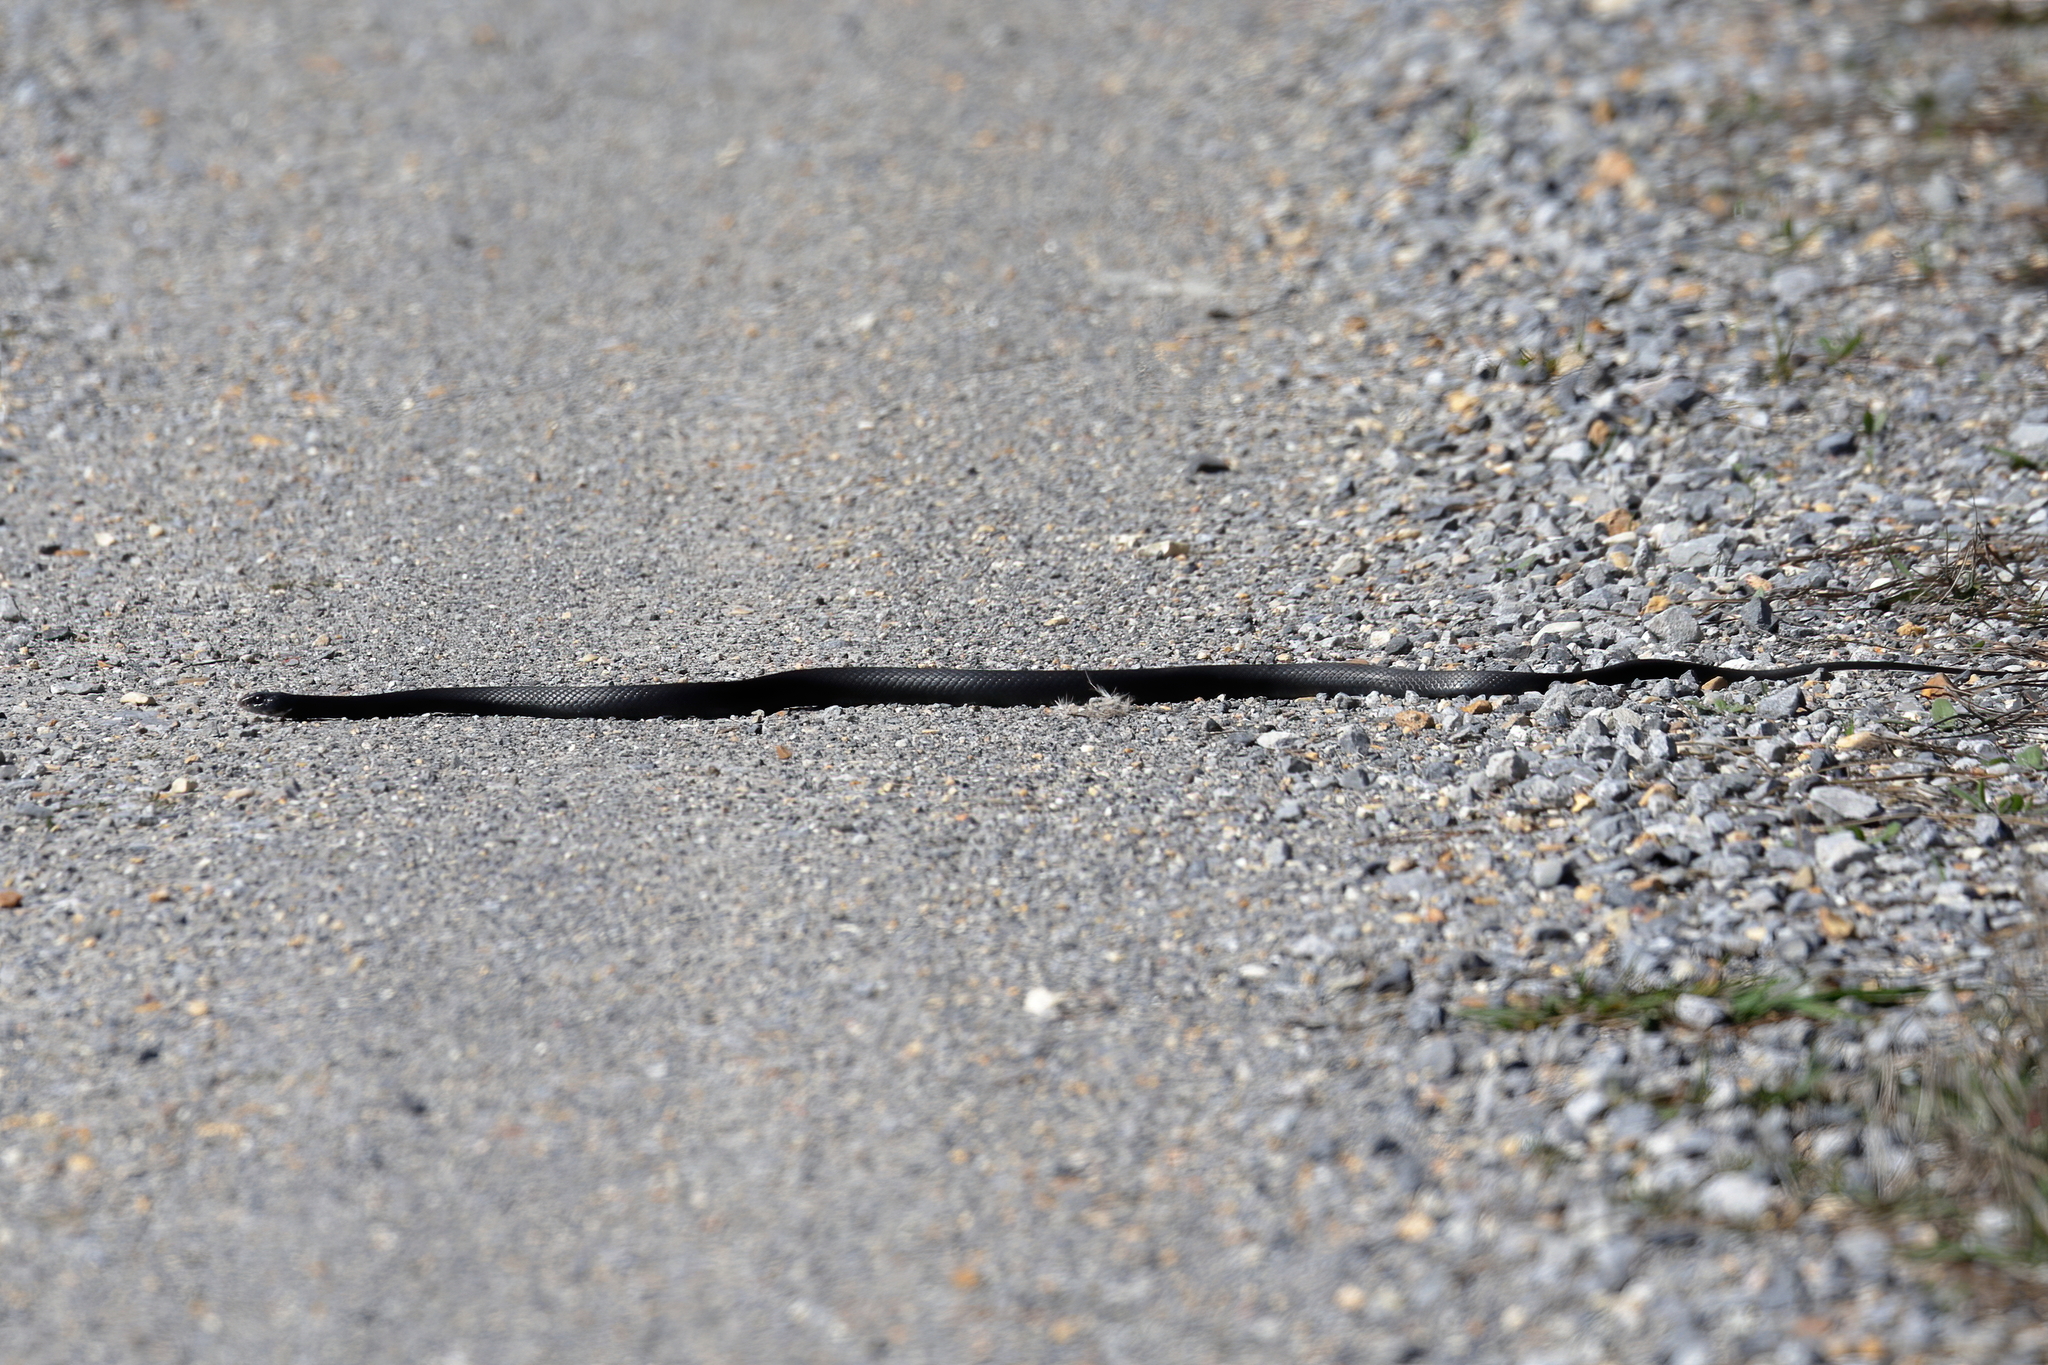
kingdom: Animalia
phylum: Chordata
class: Squamata
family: Colubridae
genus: Coluber
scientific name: Coluber constrictor
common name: Eastern racer
